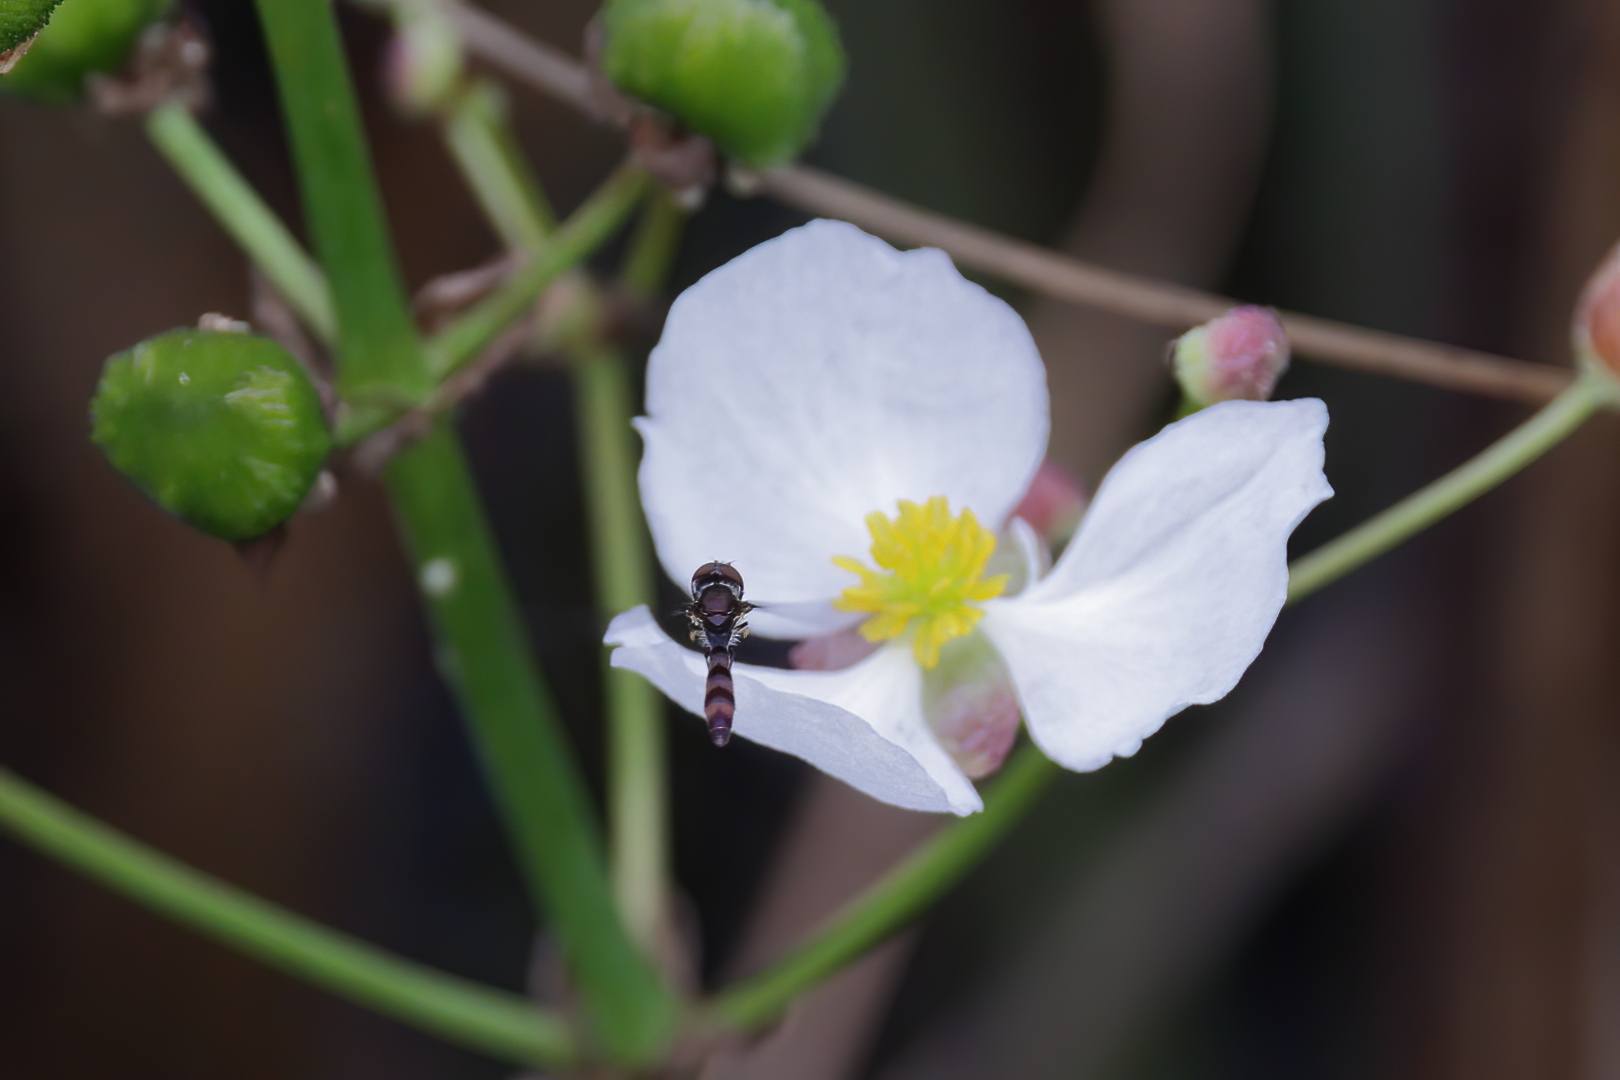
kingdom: Animalia
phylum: Arthropoda
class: Insecta
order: Diptera
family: Syrphidae
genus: Ocyptamus
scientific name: Ocyptamus fuscipennis
